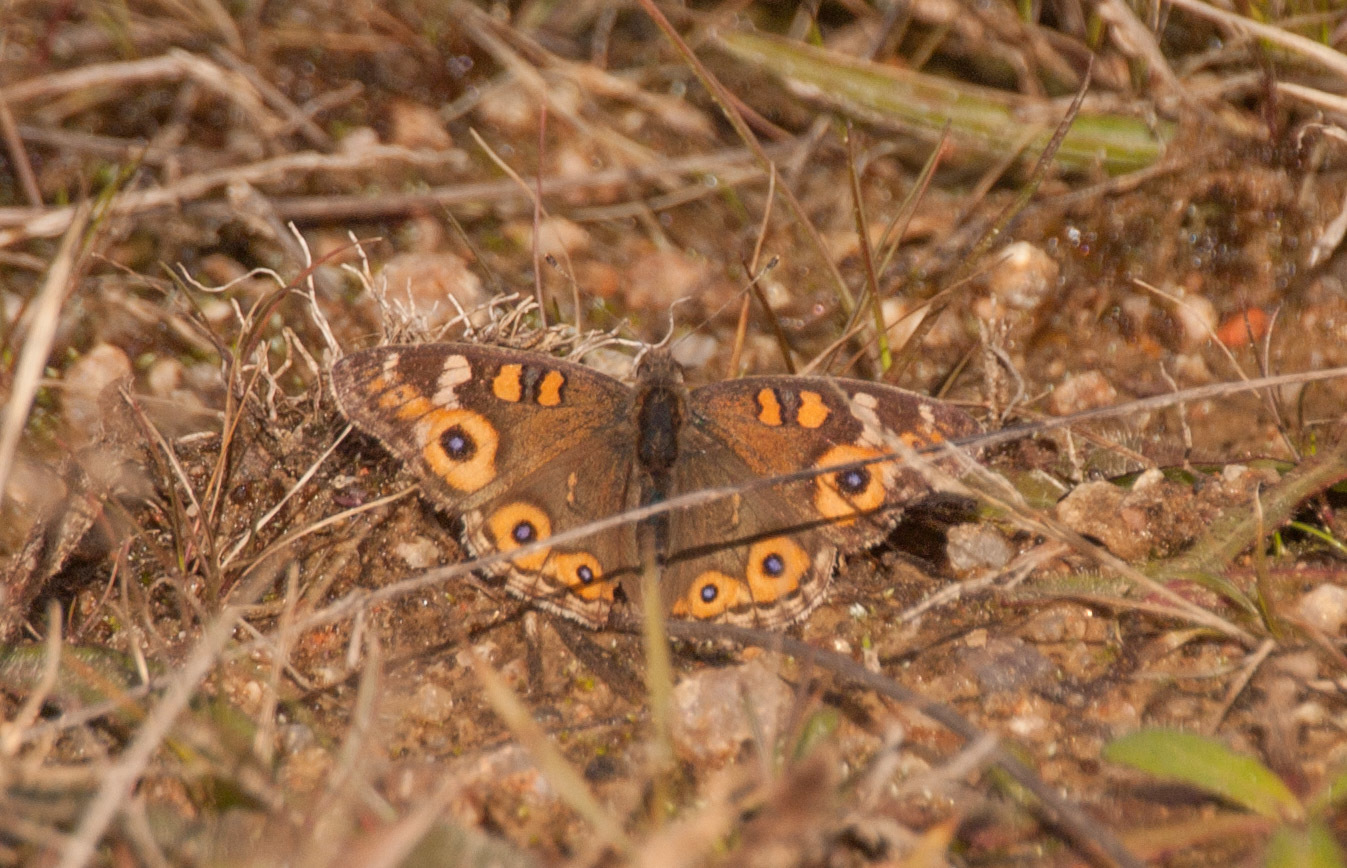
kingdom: Animalia
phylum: Arthropoda
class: Insecta
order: Lepidoptera
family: Nymphalidae
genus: Junonia
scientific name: Junonia villida
